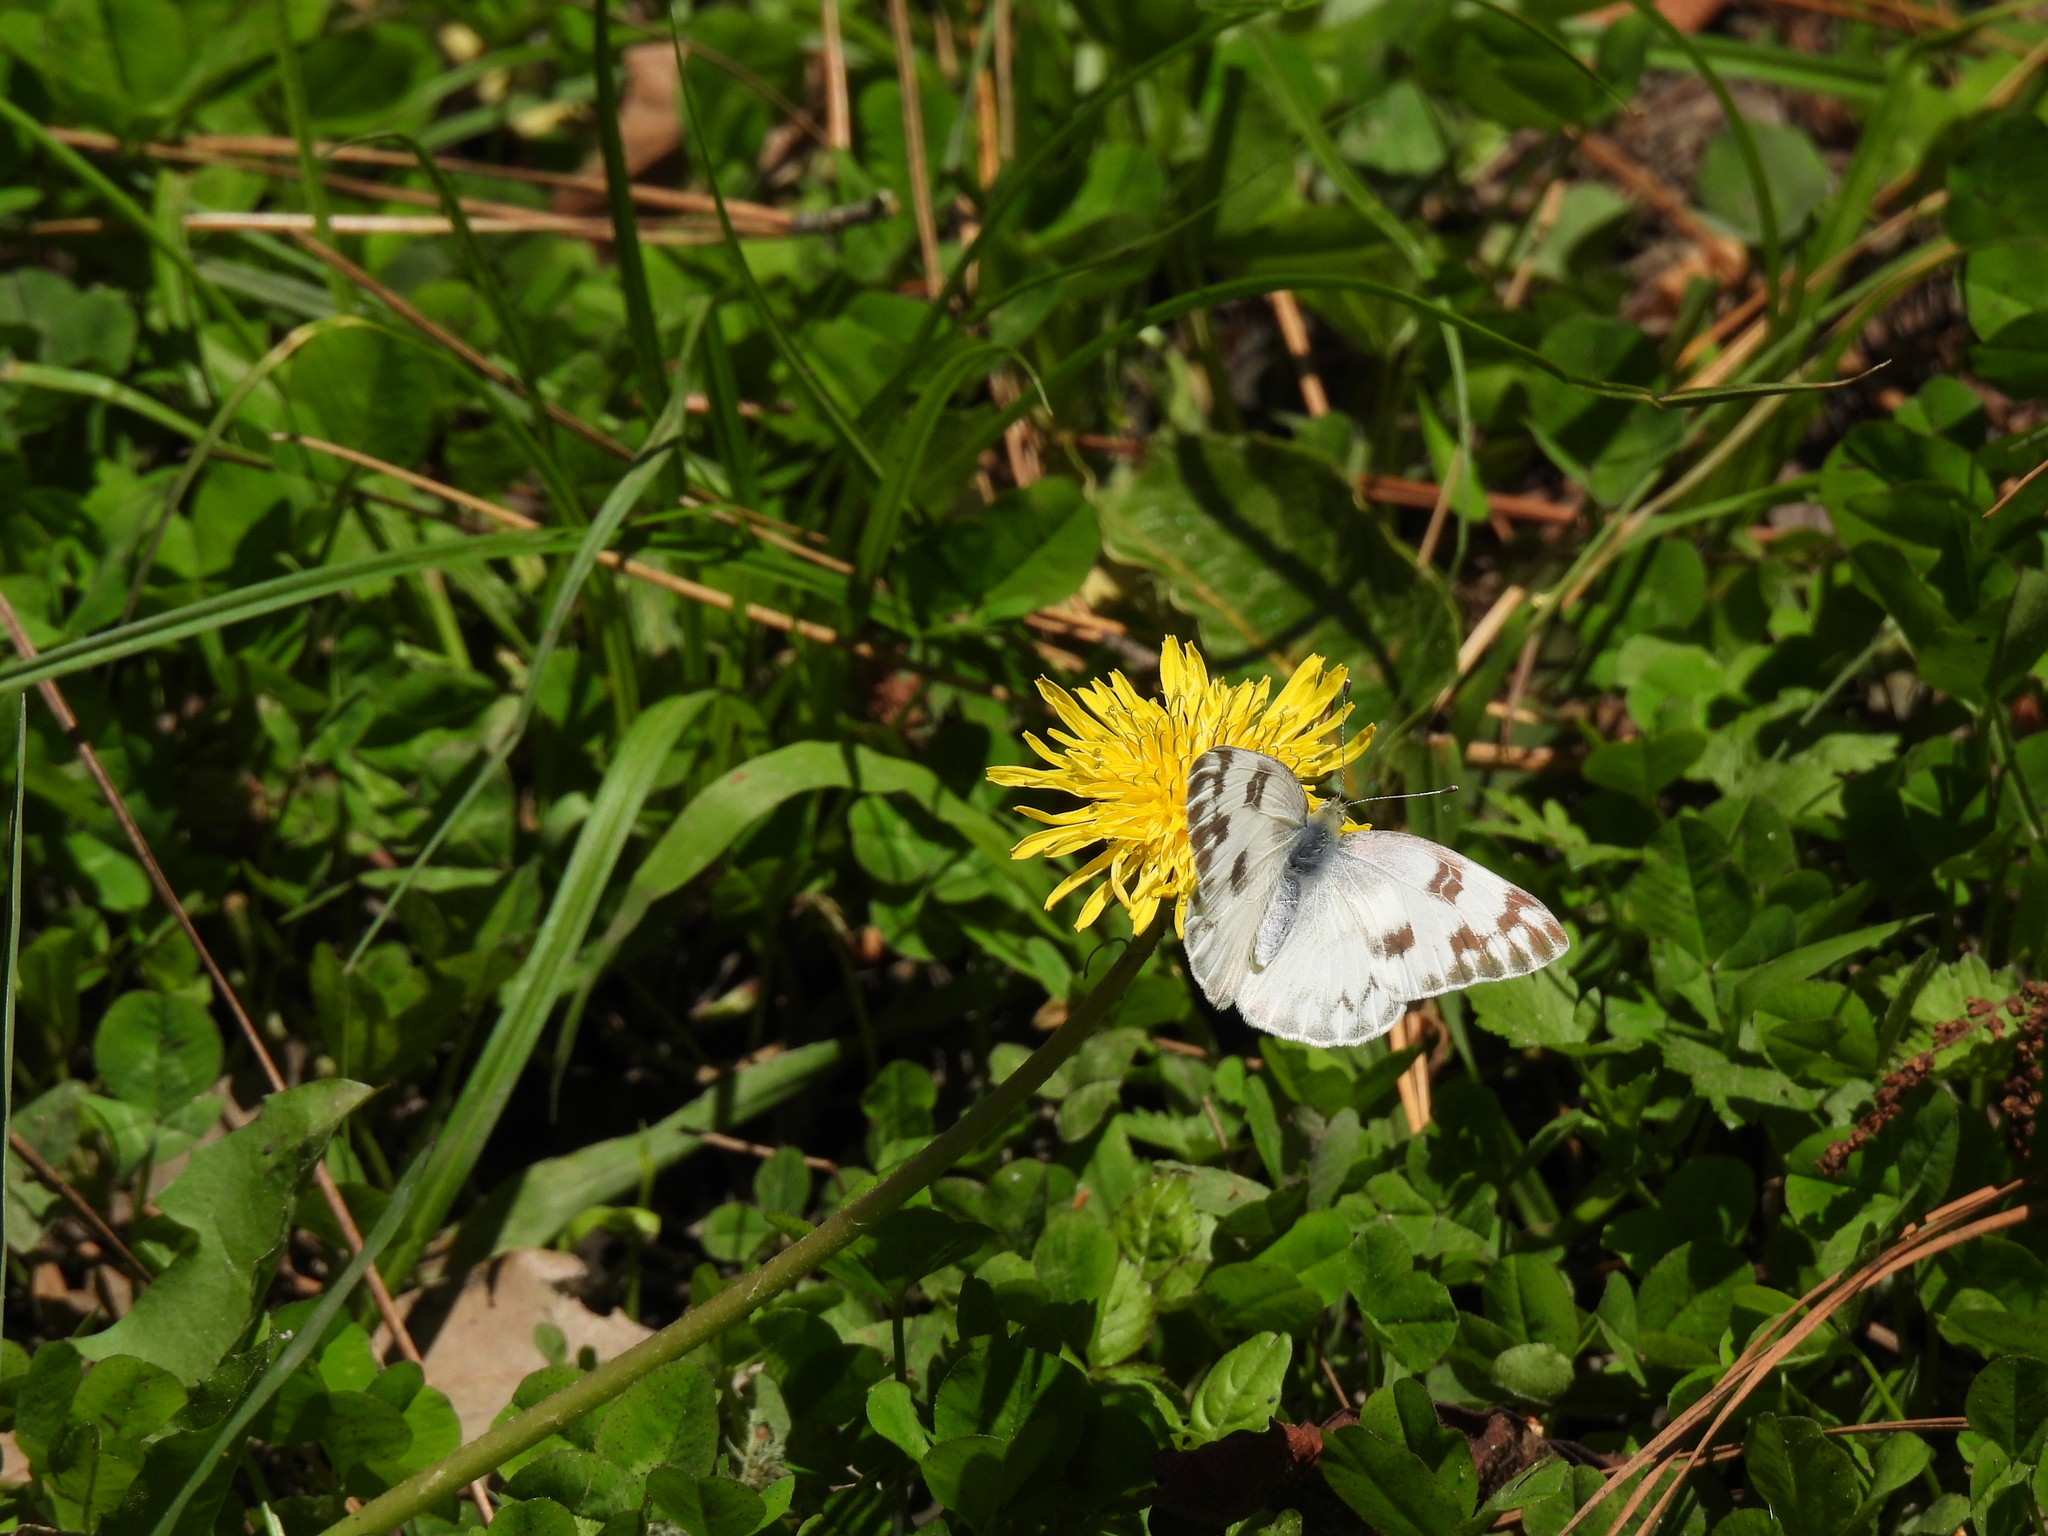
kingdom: Animalia
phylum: Arthropoda
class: Insecta
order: Lepidoptera
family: Pieridae
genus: Pontia
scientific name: Pontia protodice
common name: Checkered white
